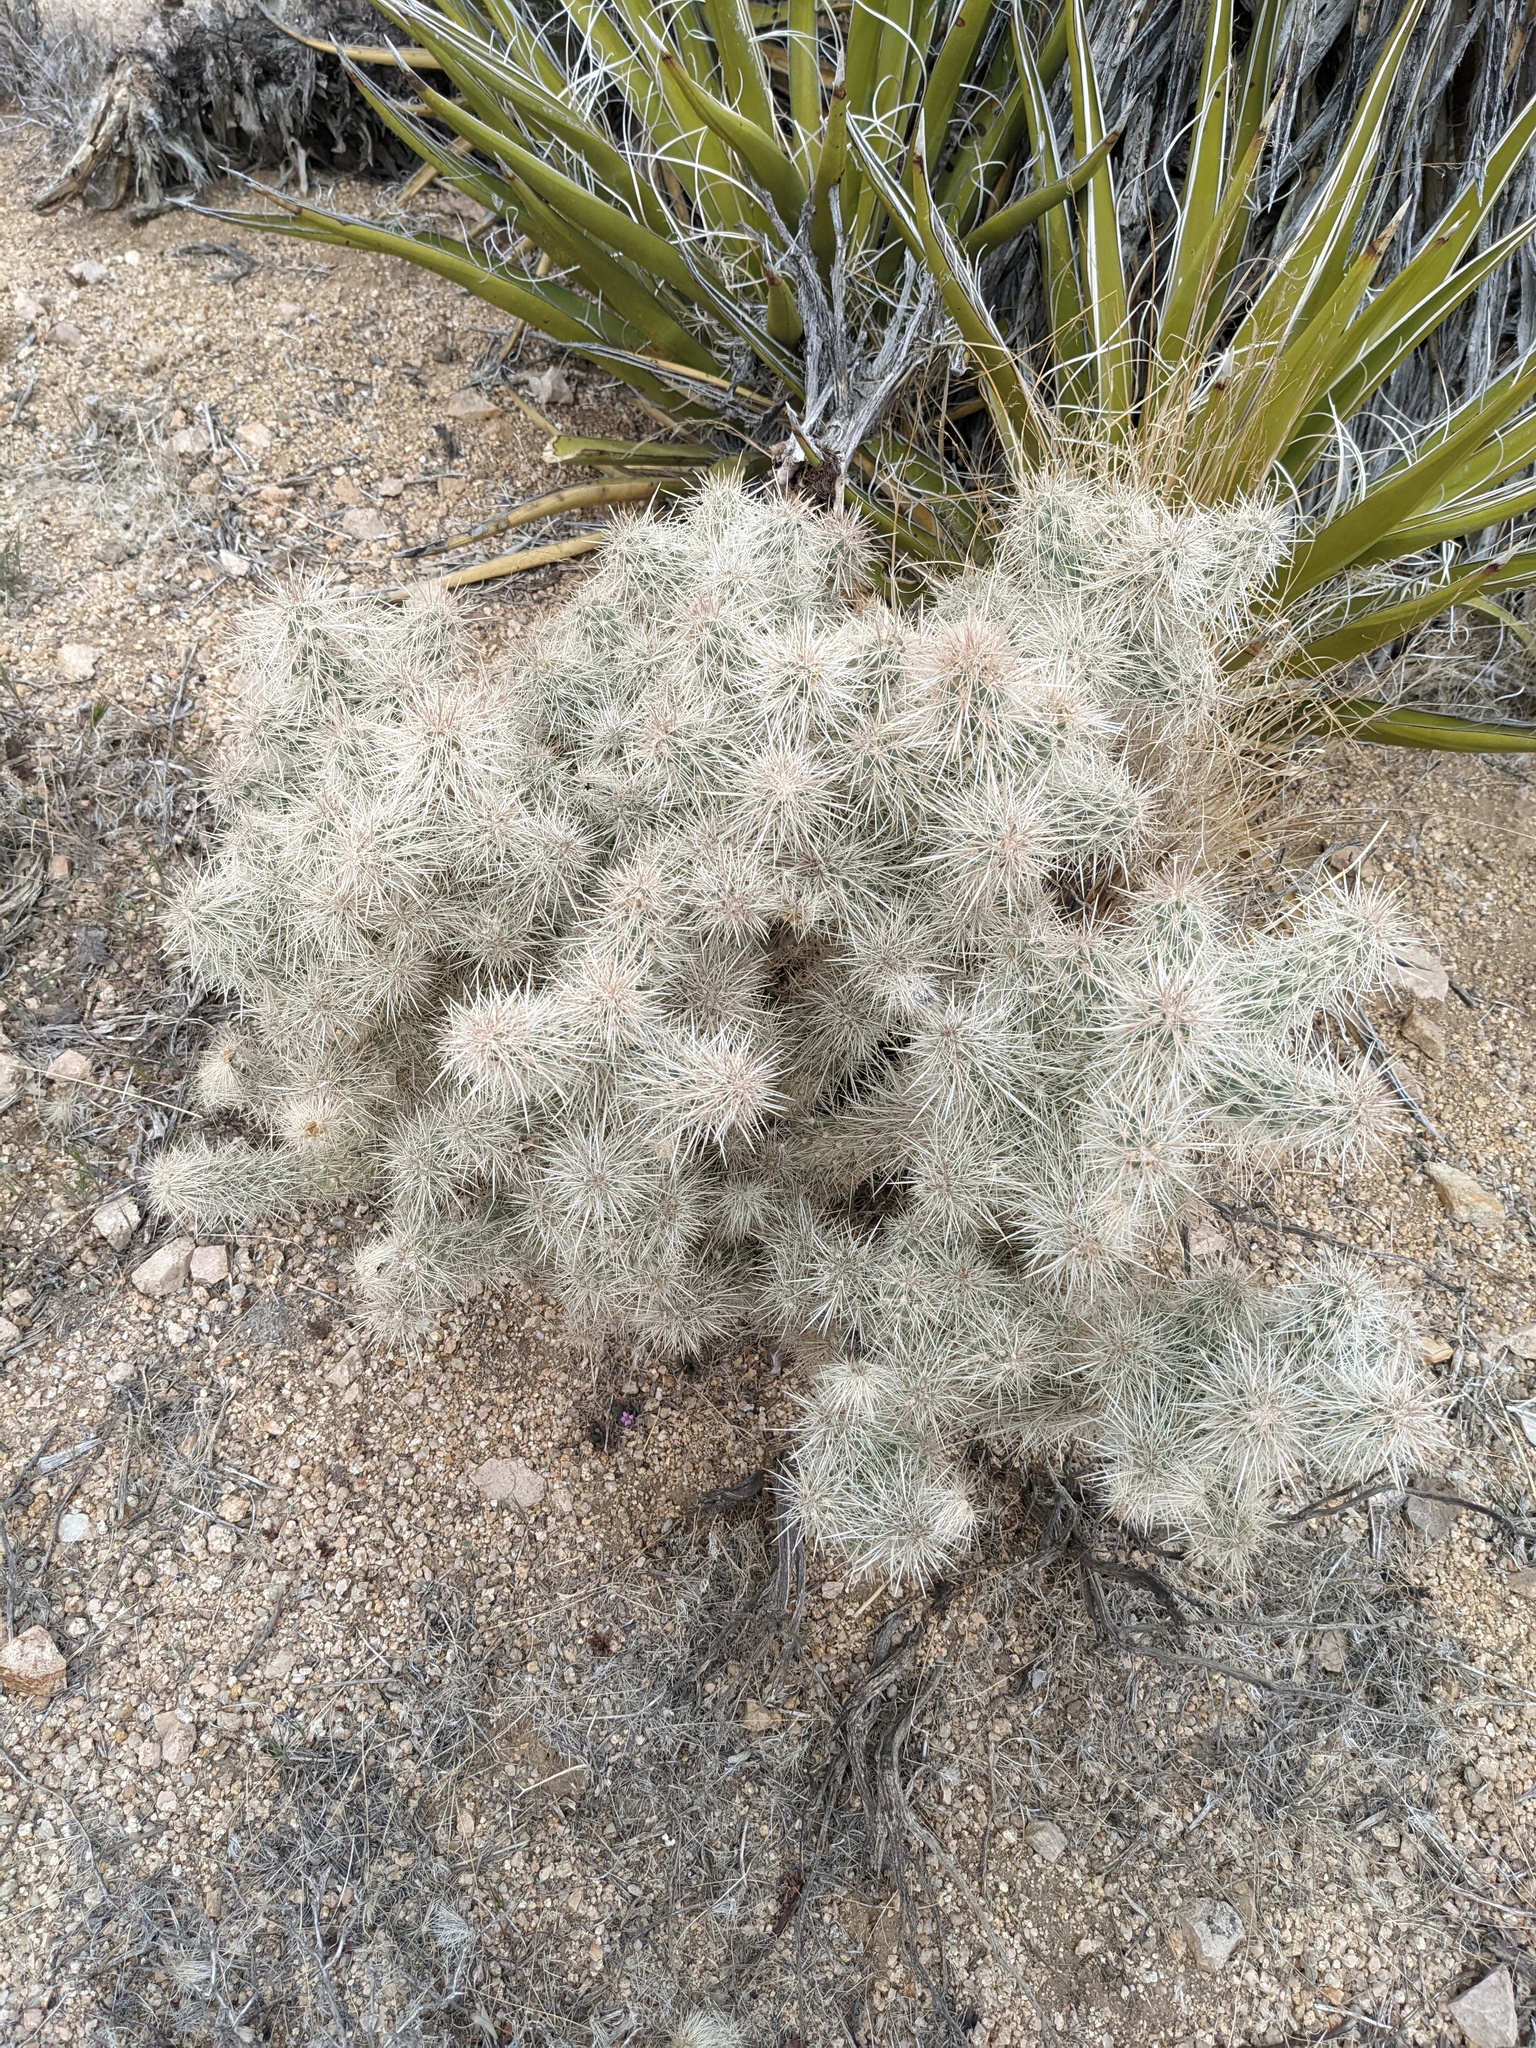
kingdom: Plantae
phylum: Tracheophyta
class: Magnoliopsida
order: Caryophyllales
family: Cactaceae
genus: Cylindropuntia
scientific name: Cylindropuntia echinocarpa
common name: Ground cholla
